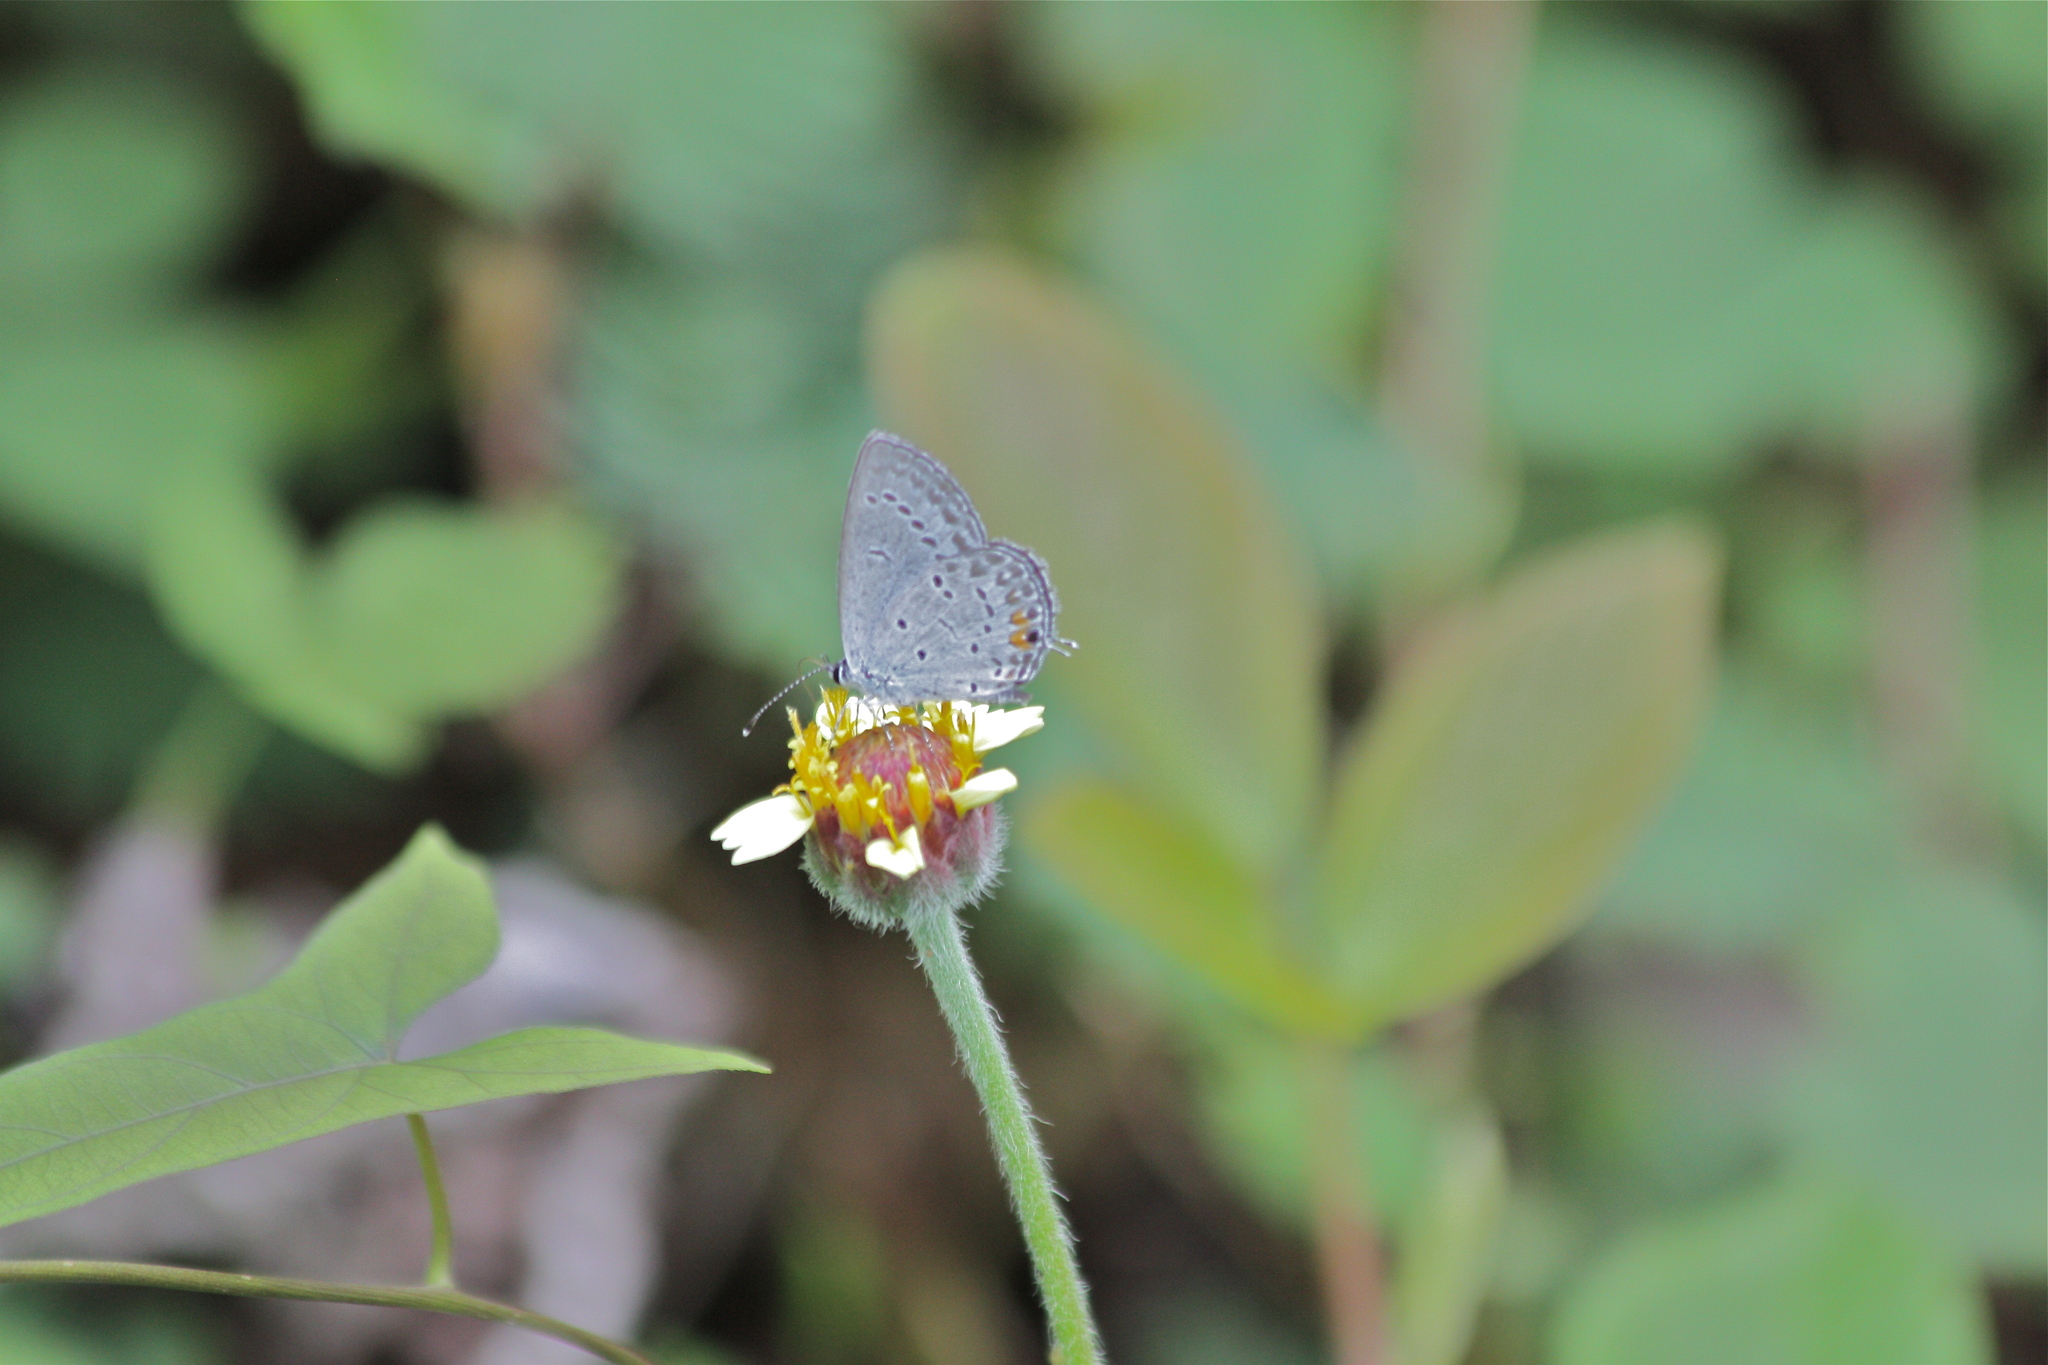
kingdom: Animalia
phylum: Arthropoda
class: Insecta
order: Lepidoptera
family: Lycaenidae
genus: Elkalyce
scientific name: Elkalyce comyntas
